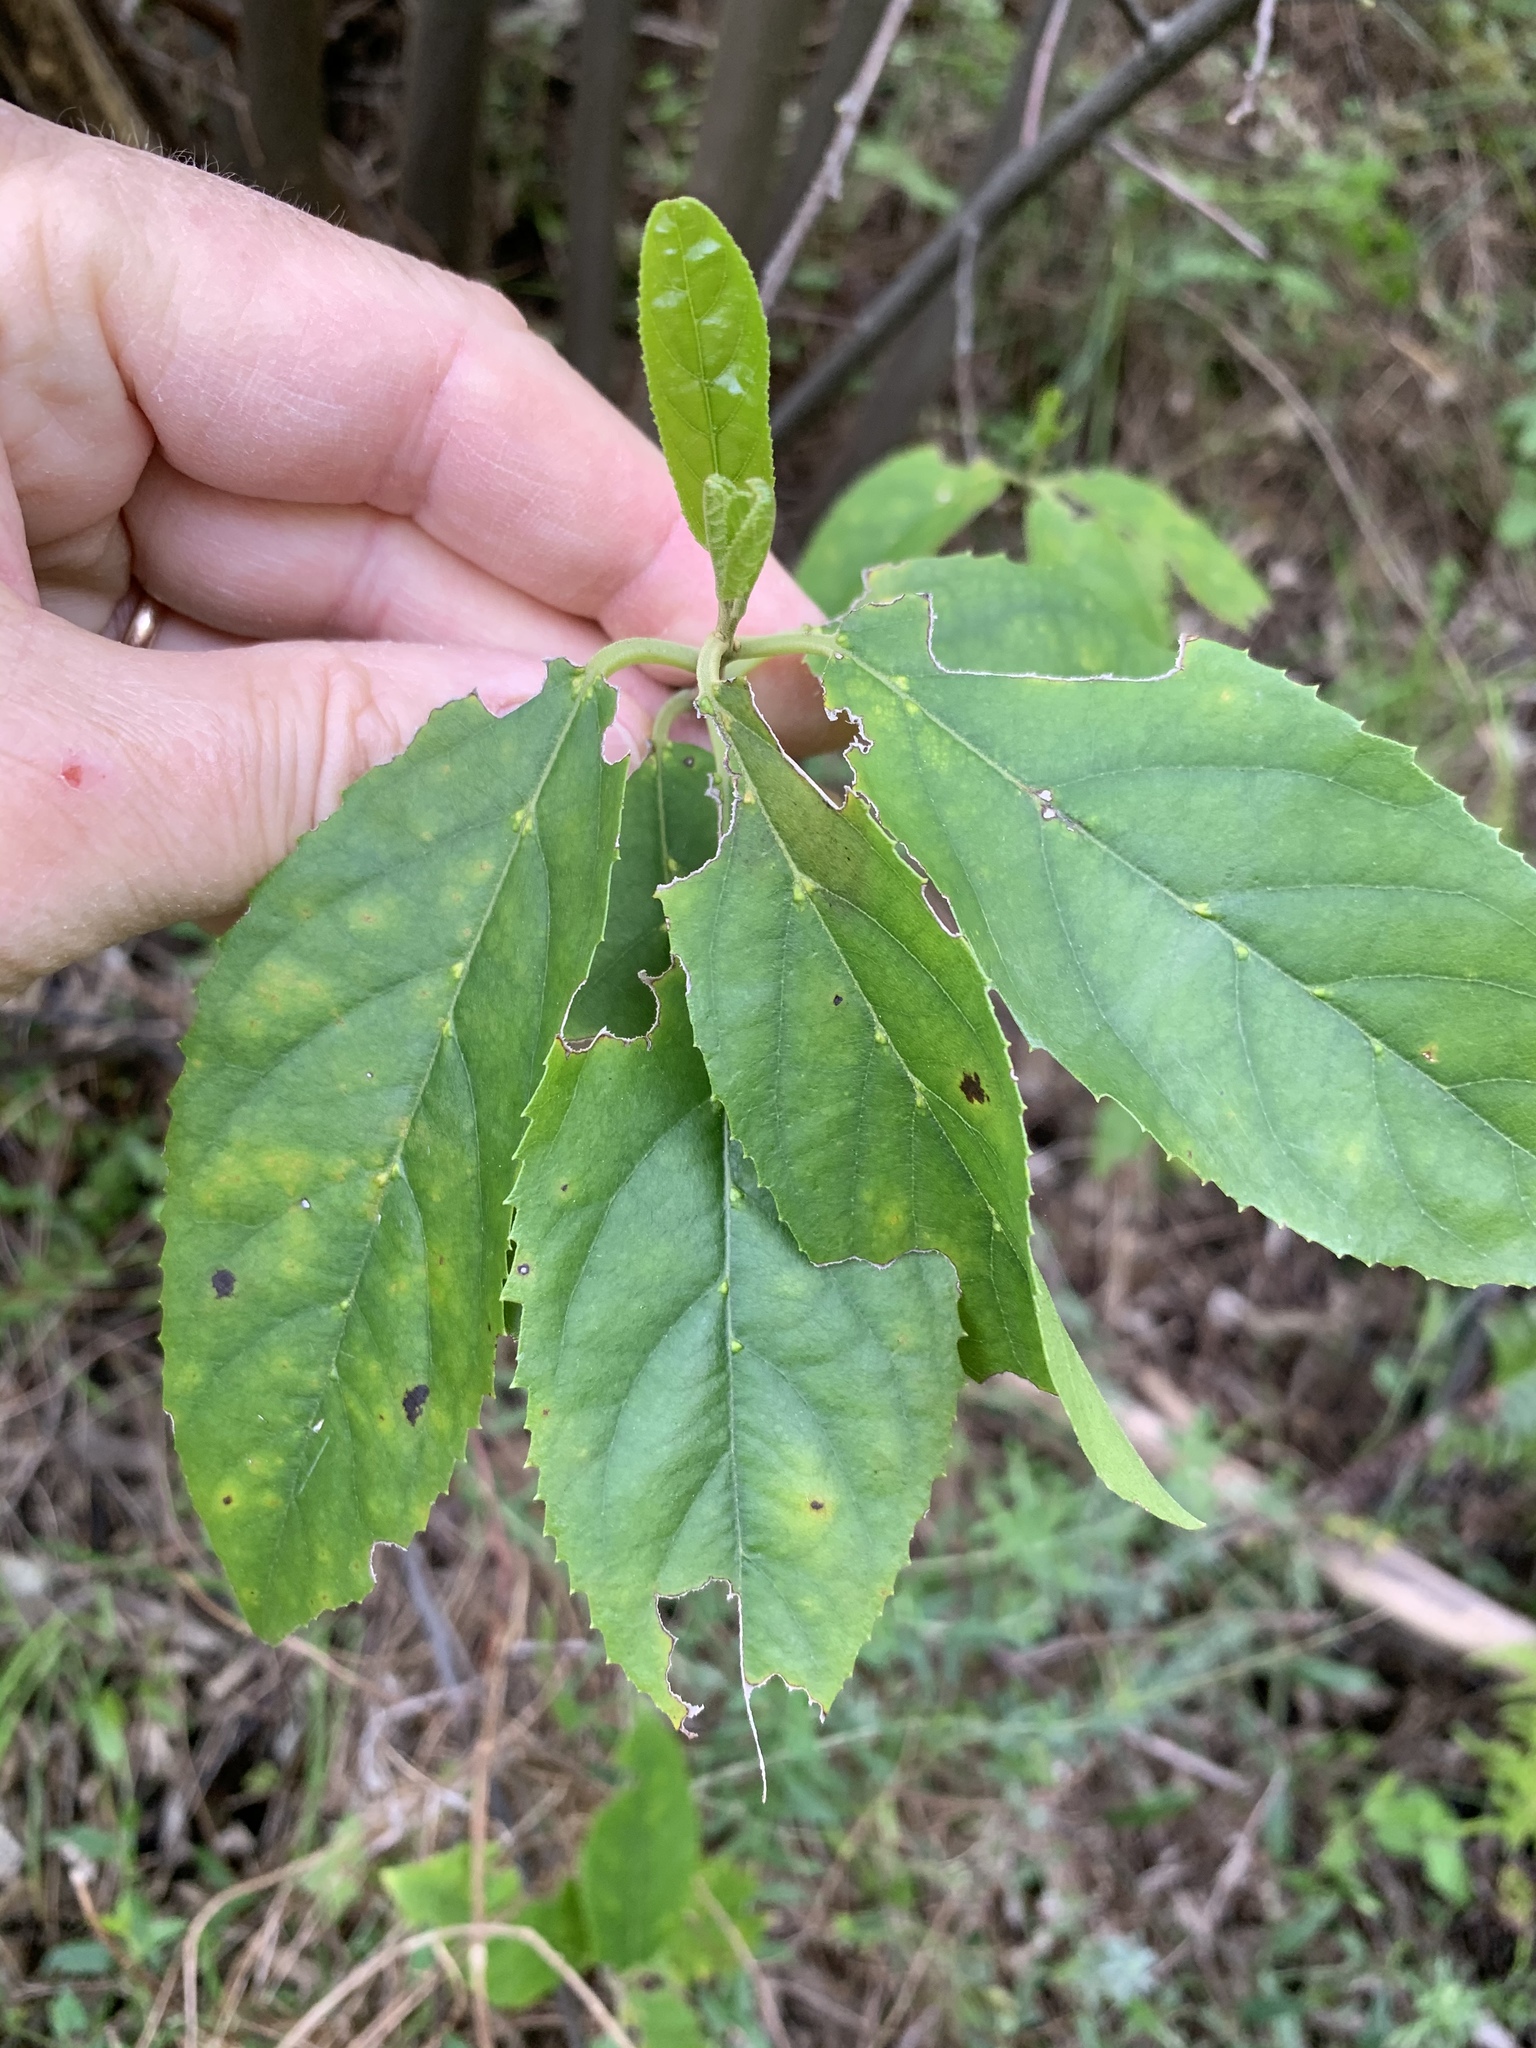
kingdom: Plantae
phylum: Tracheophyta
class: Magnoliopsida
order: Malpighiales
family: Achariaceae
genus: Kiggelaria
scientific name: Kiggelaria africana
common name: Wild peach
